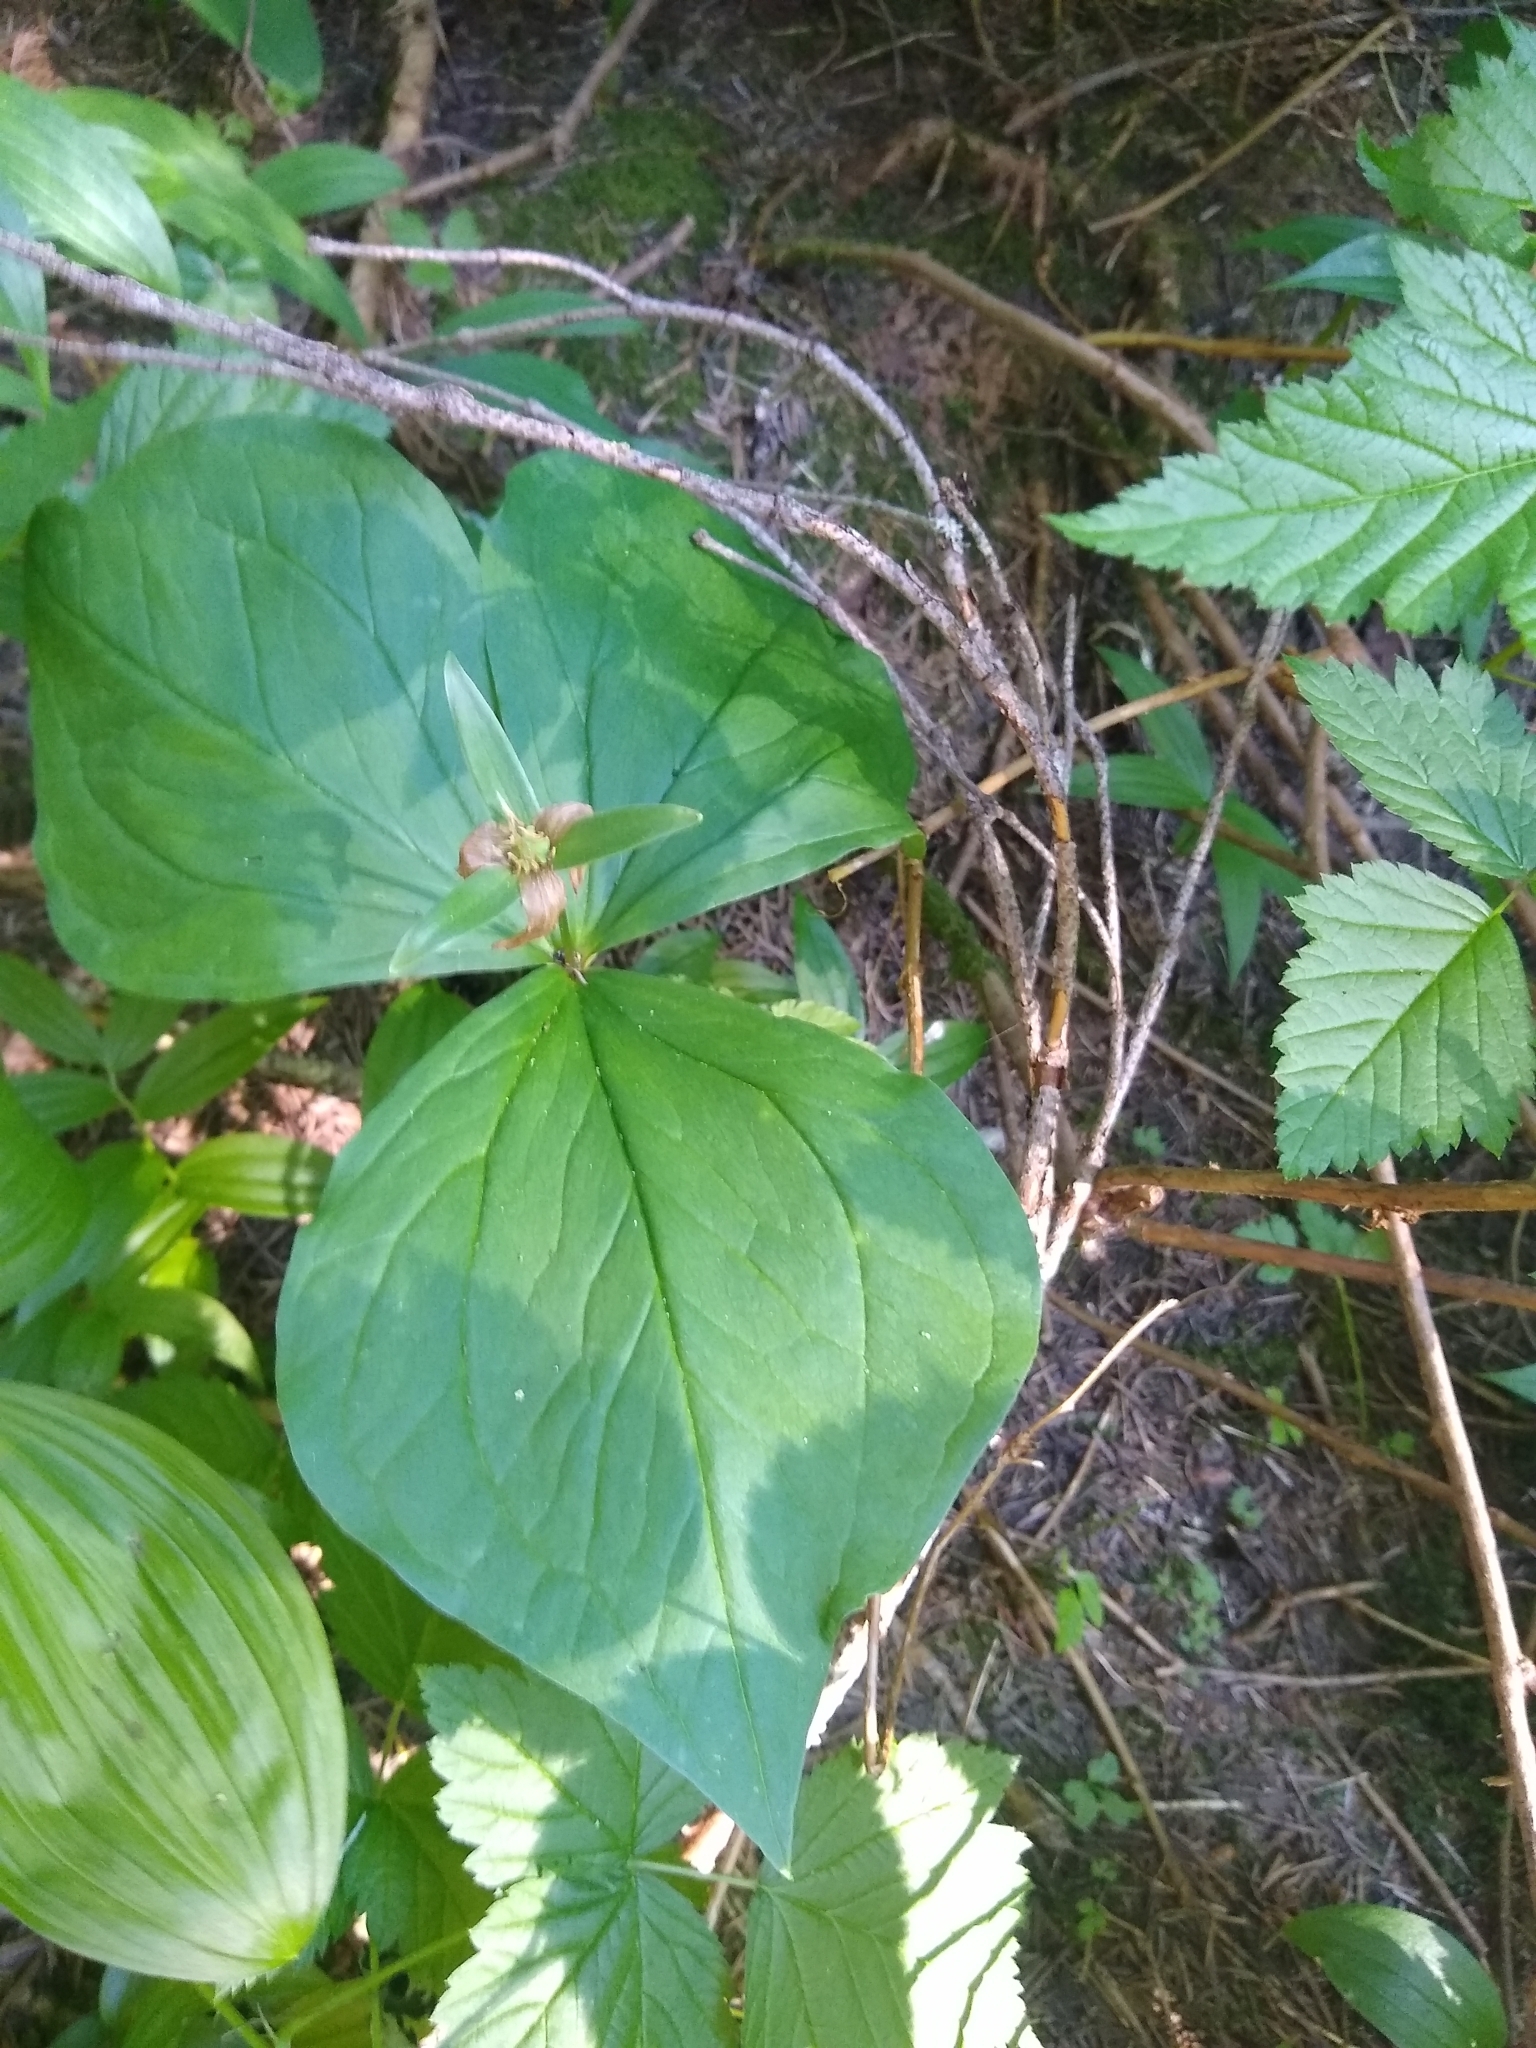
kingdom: Plantae
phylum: Tracheophyta
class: Liliopsida
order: Liliales
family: Melanthiaceae
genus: Trillium
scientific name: Trillium ovatum
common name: Pacific trillium
